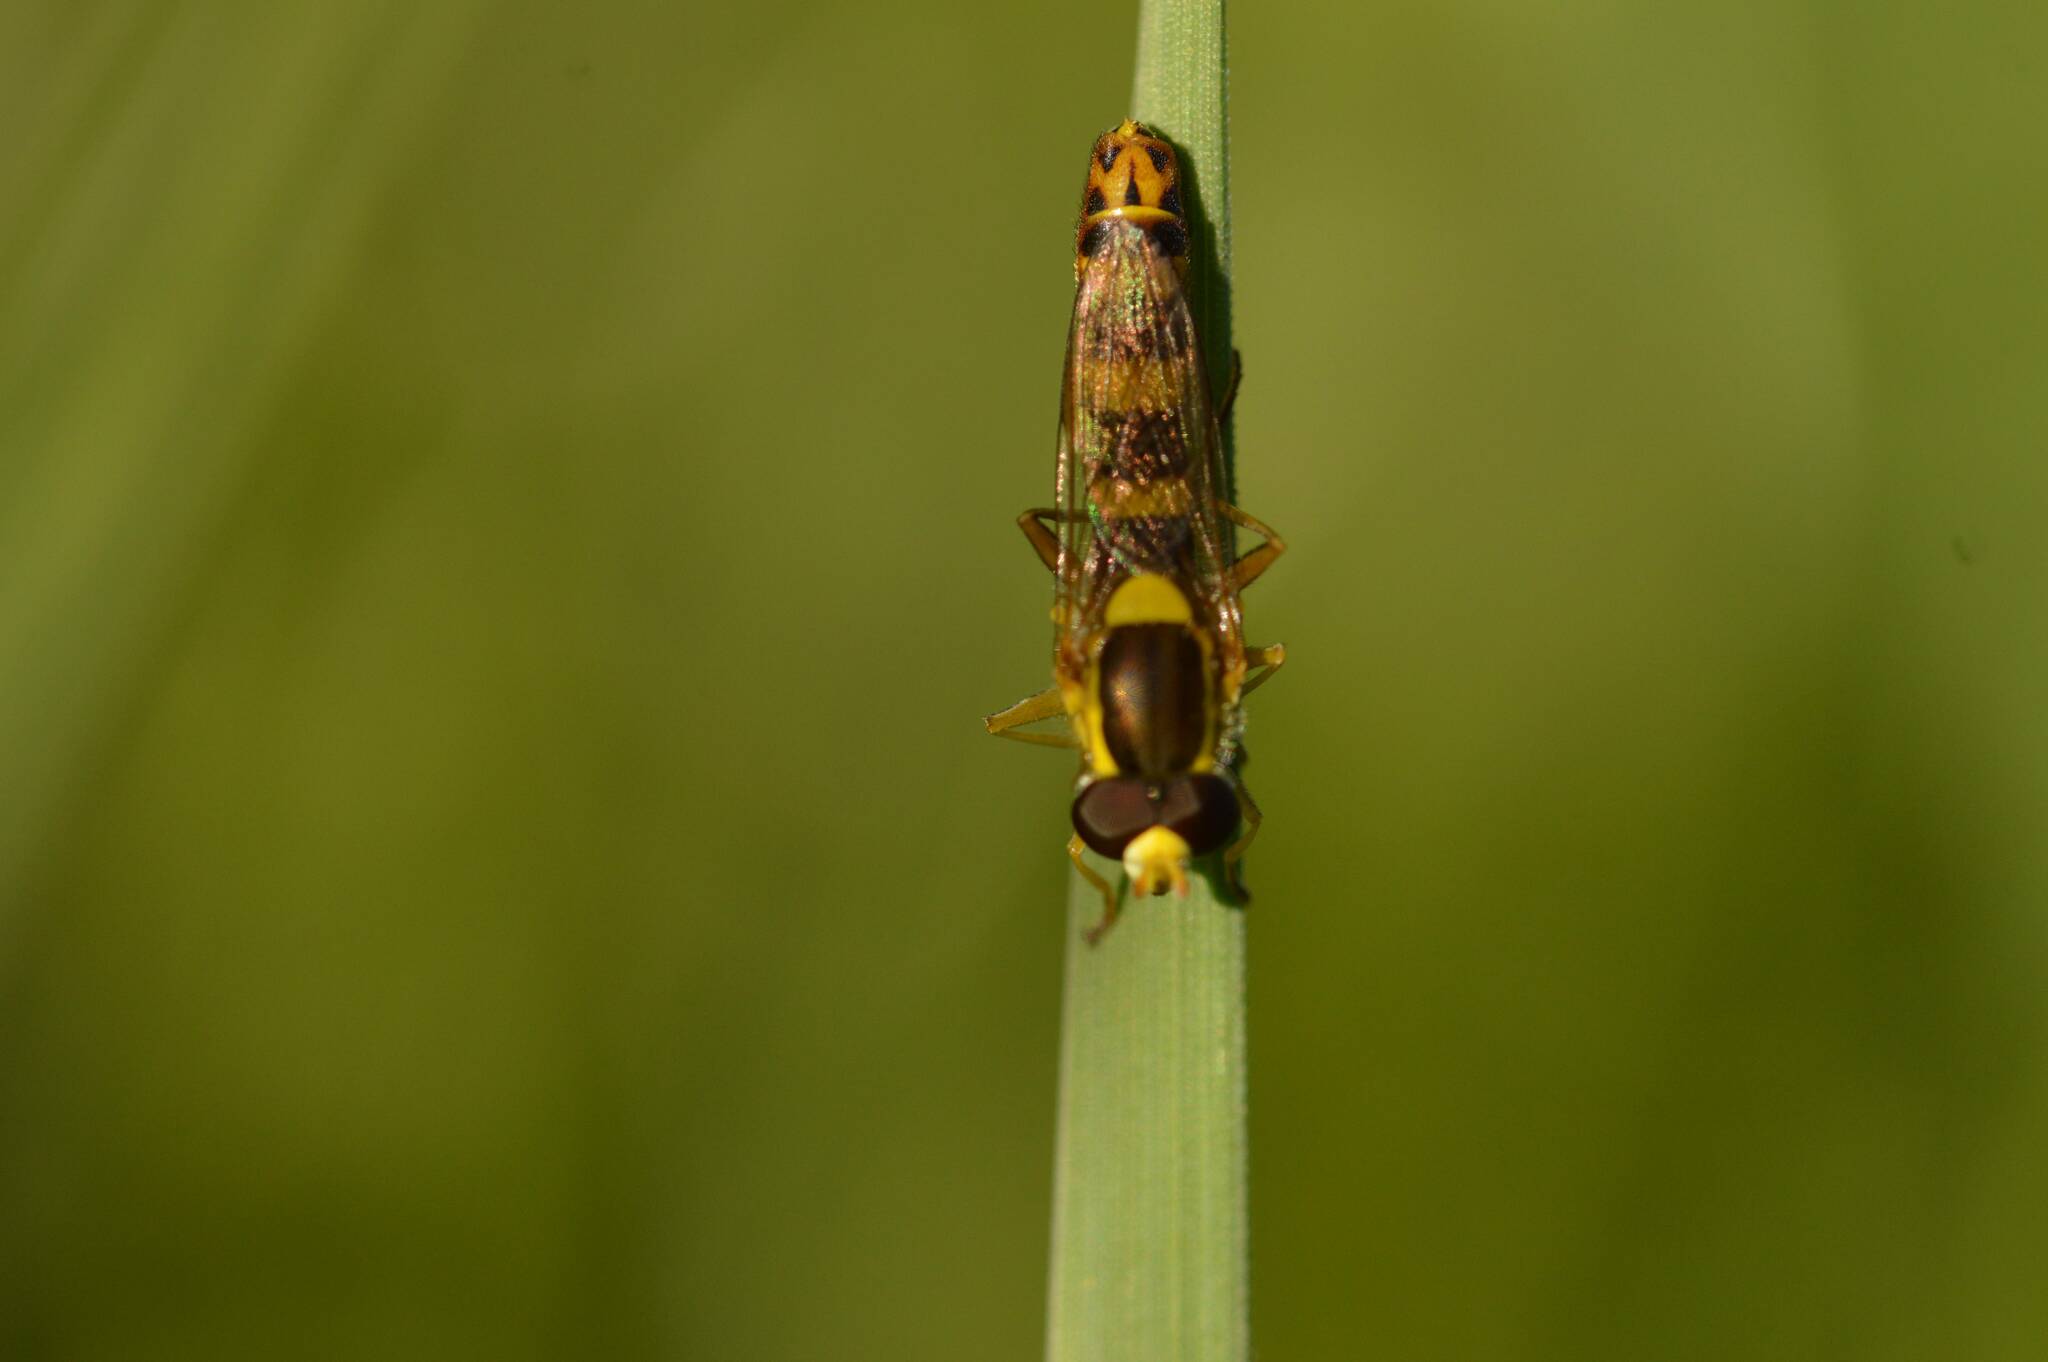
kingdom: Animalia
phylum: Arthropoda
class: Insecta
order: Diptera
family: Syrphidae
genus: Sphaerophoria
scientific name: Sphaerophoria scripta
